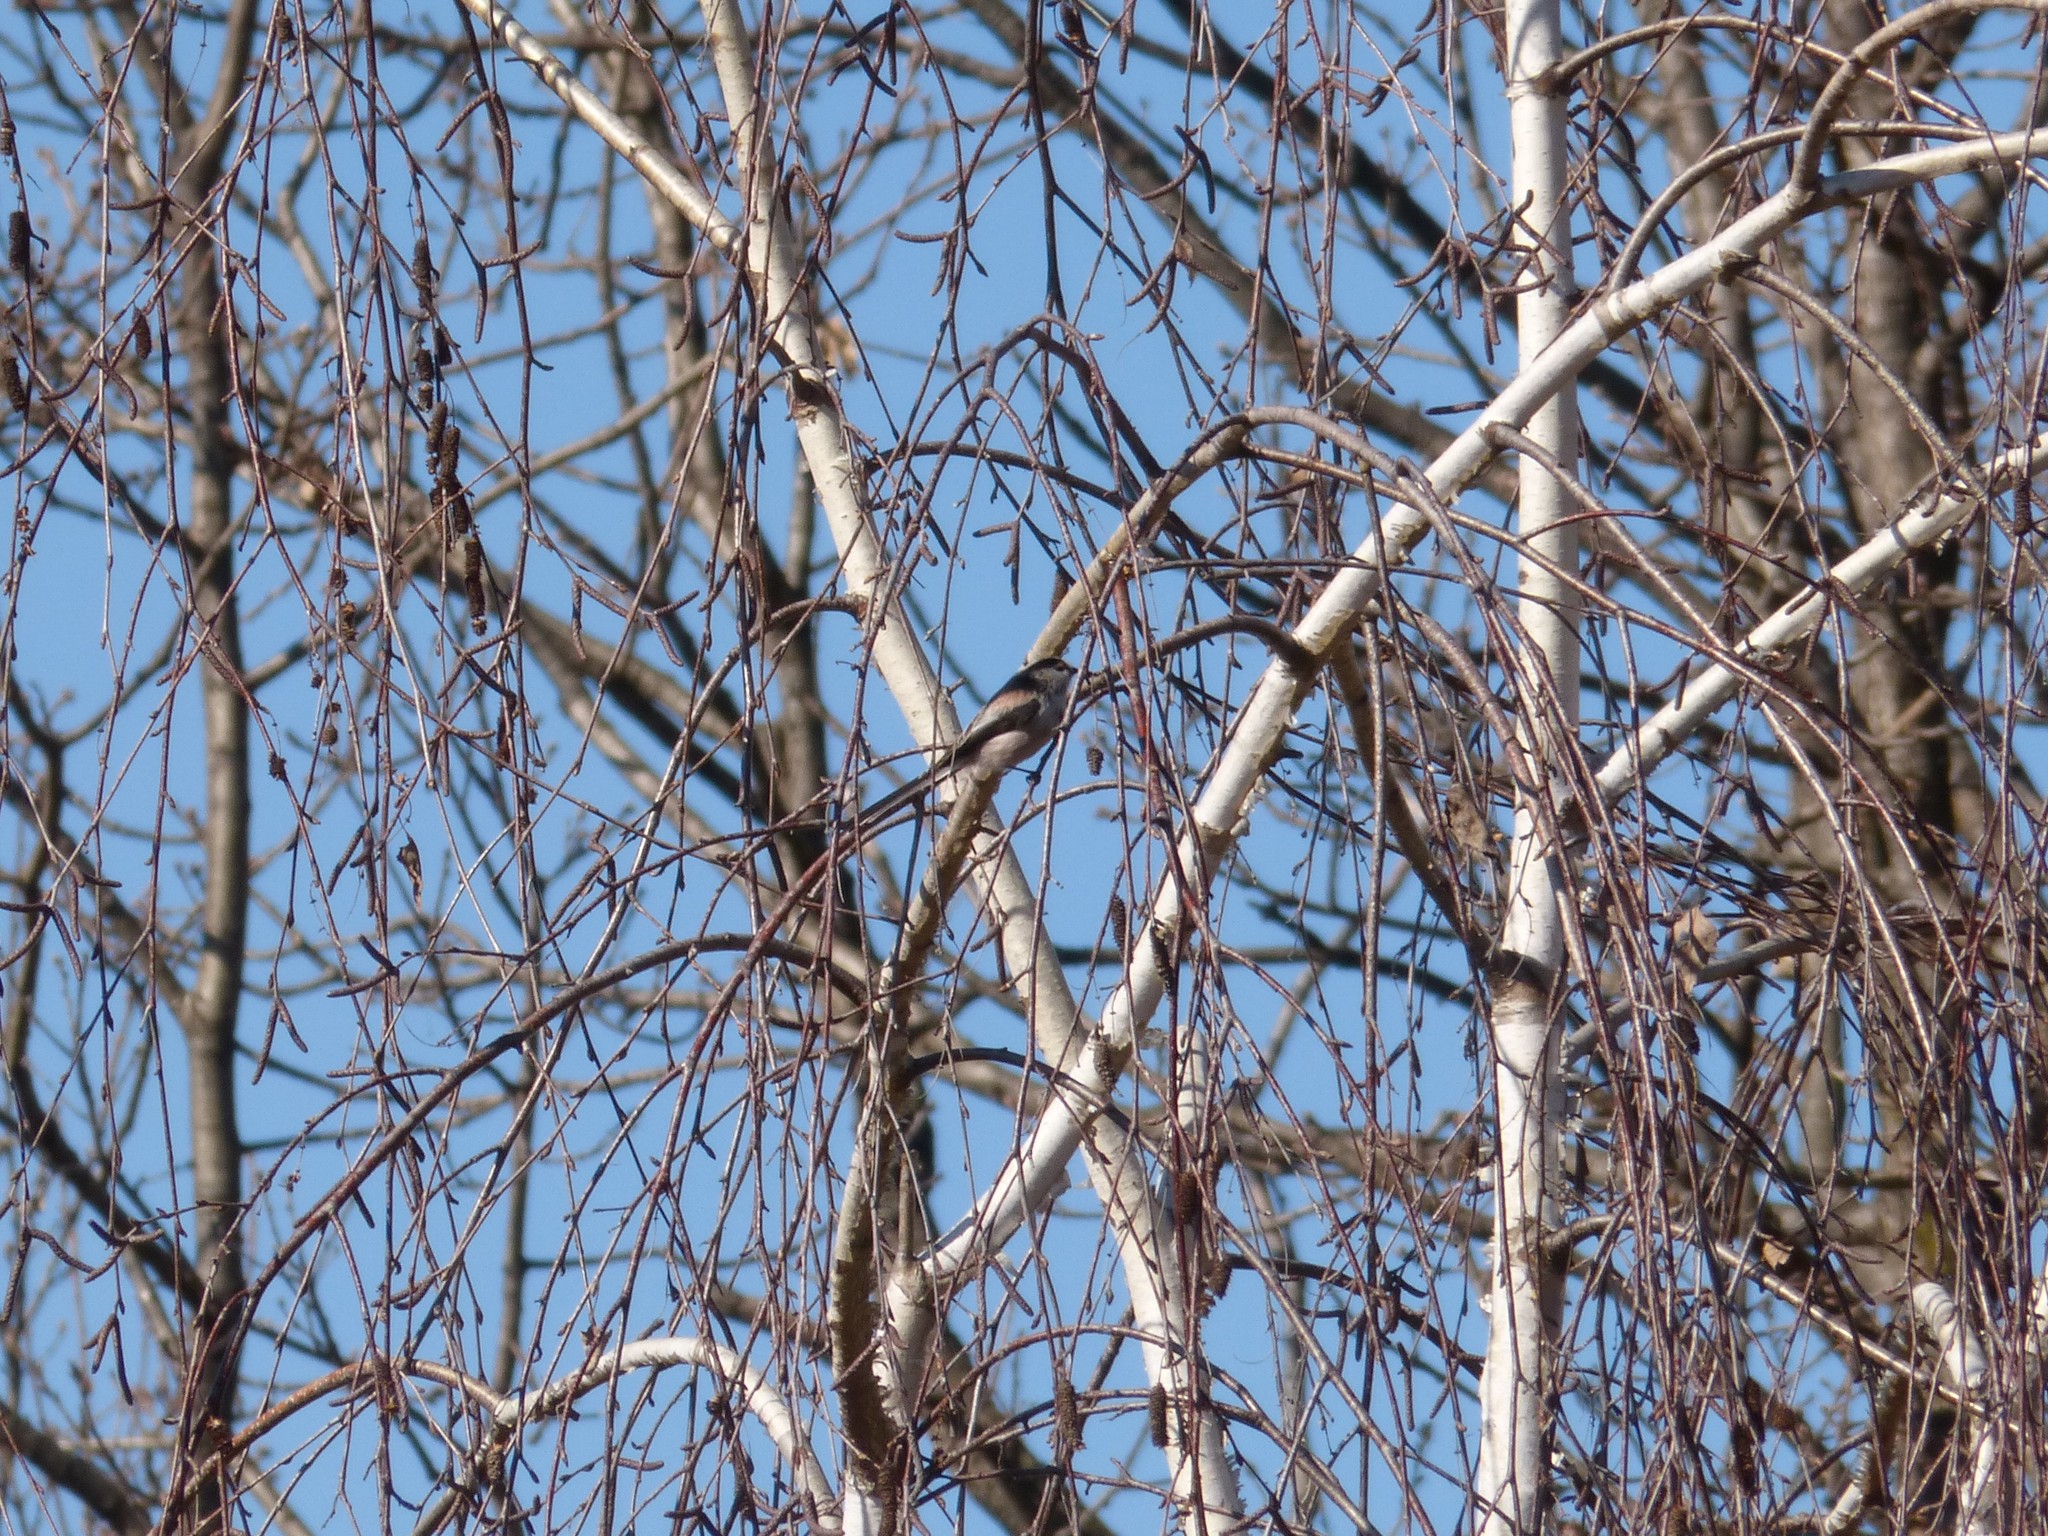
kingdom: Animalia
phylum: Chordata
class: Aves
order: Passeriformes
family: Aegithalidae
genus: Aegithalos
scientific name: Aegithalos caudatus
